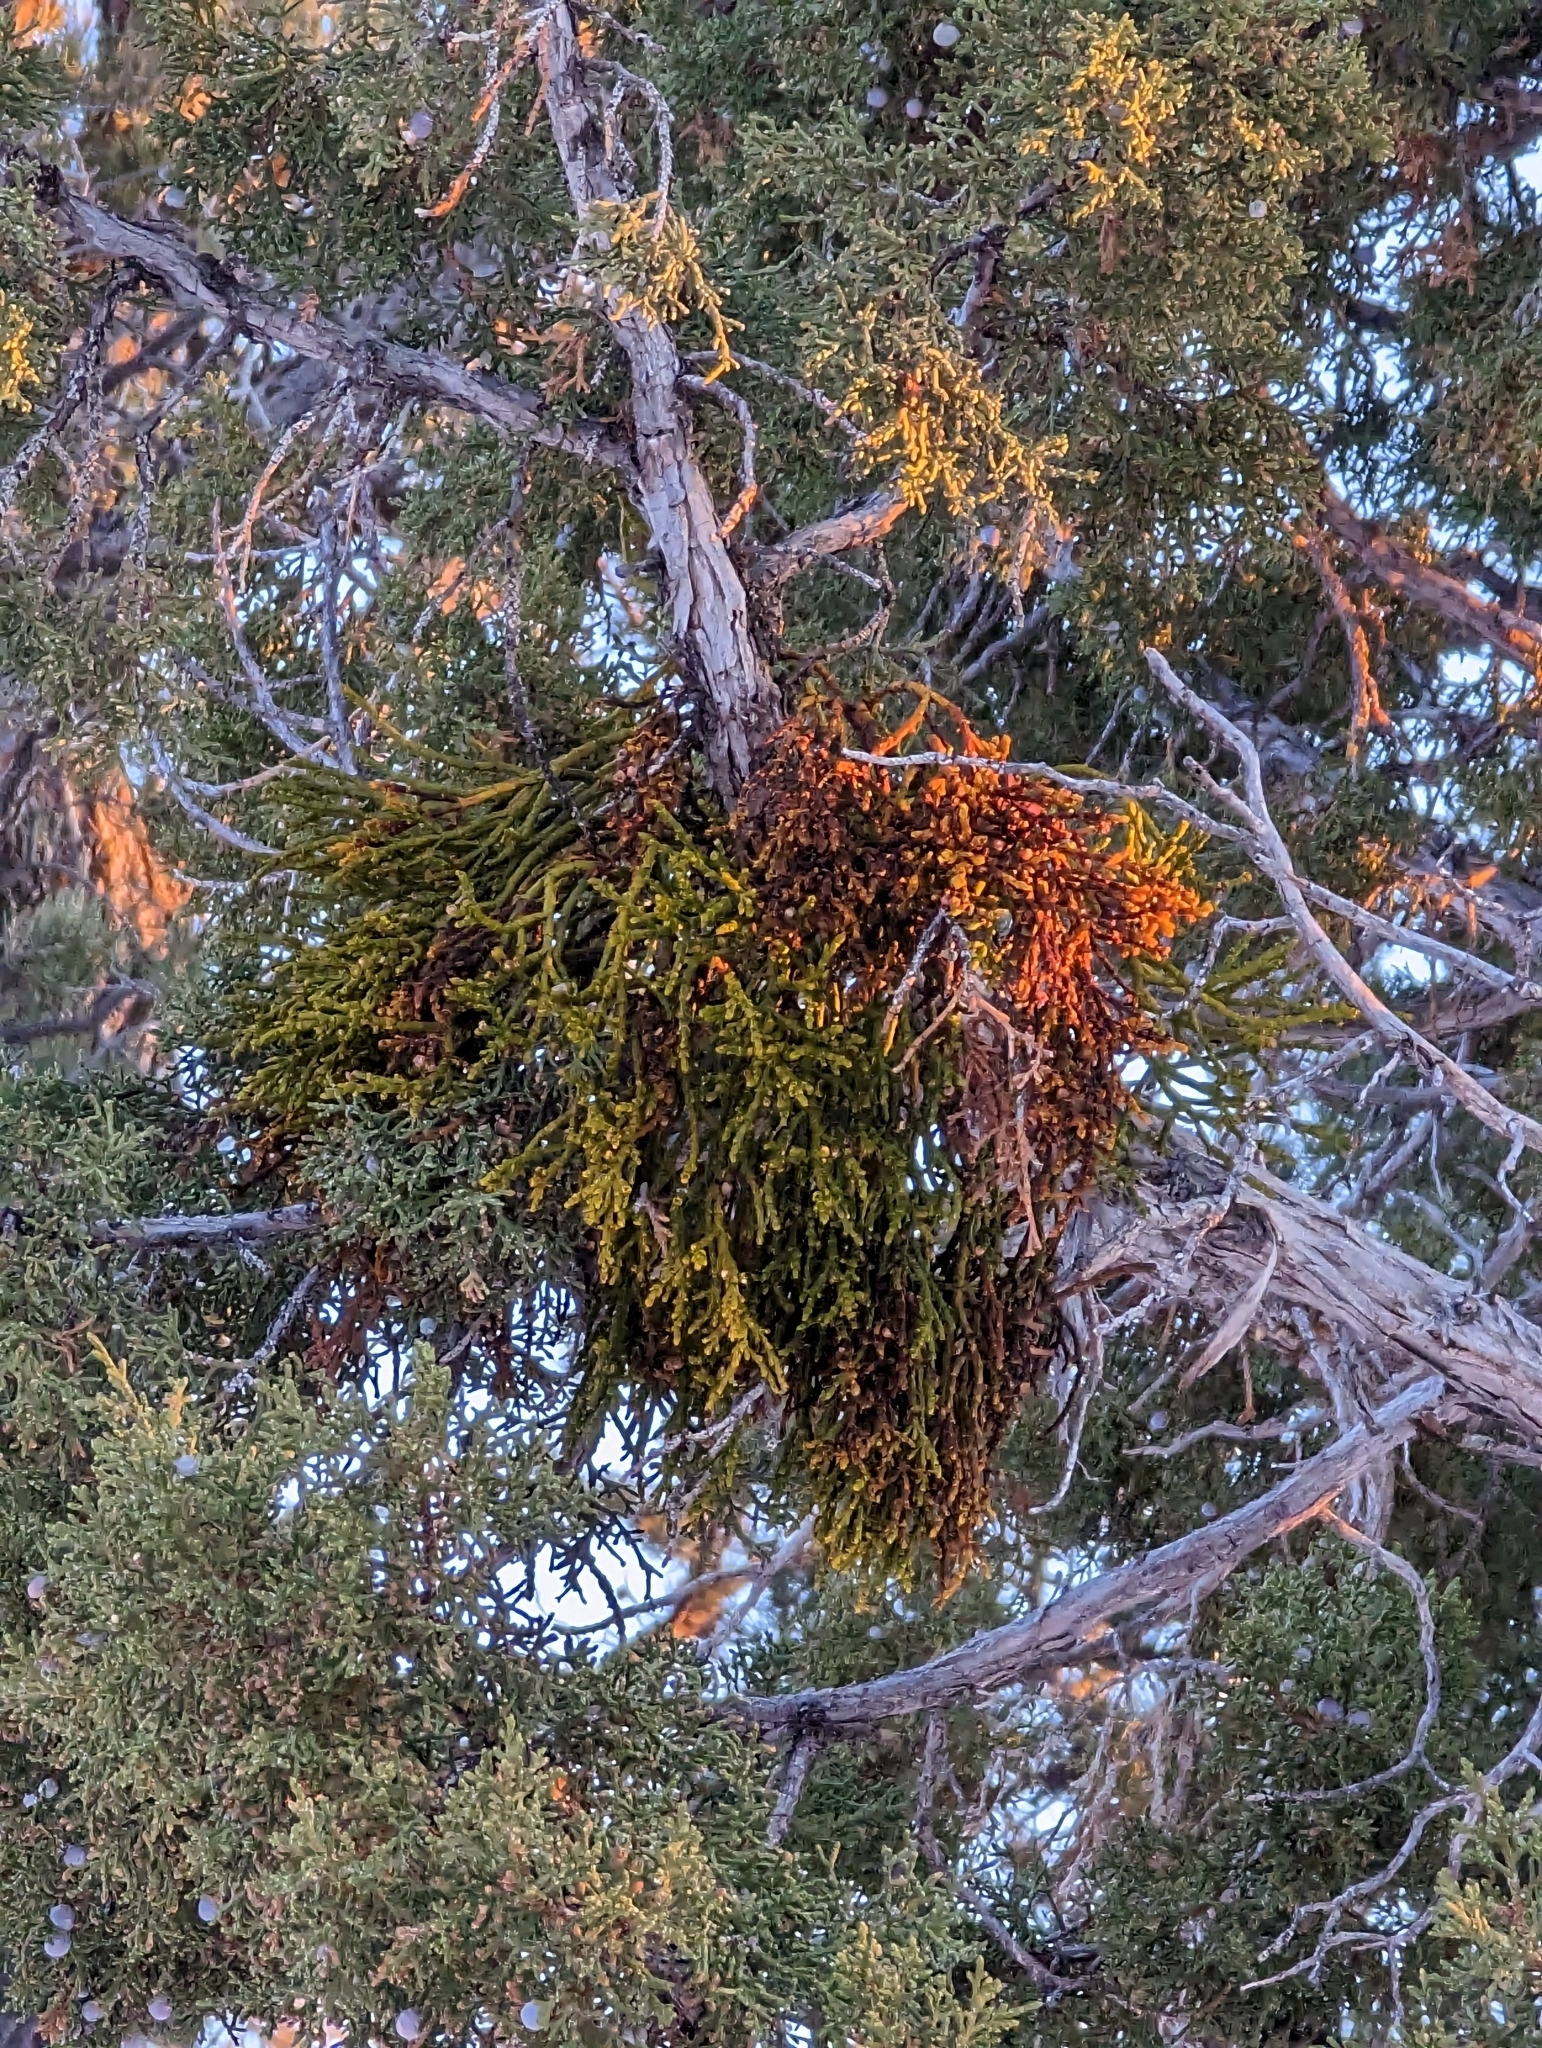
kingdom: Plantae
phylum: Tracheophyta
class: Magnoliopsida
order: Santalales
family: Viscaceae
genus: Phoradendron
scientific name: Phoradendron juniperinum
